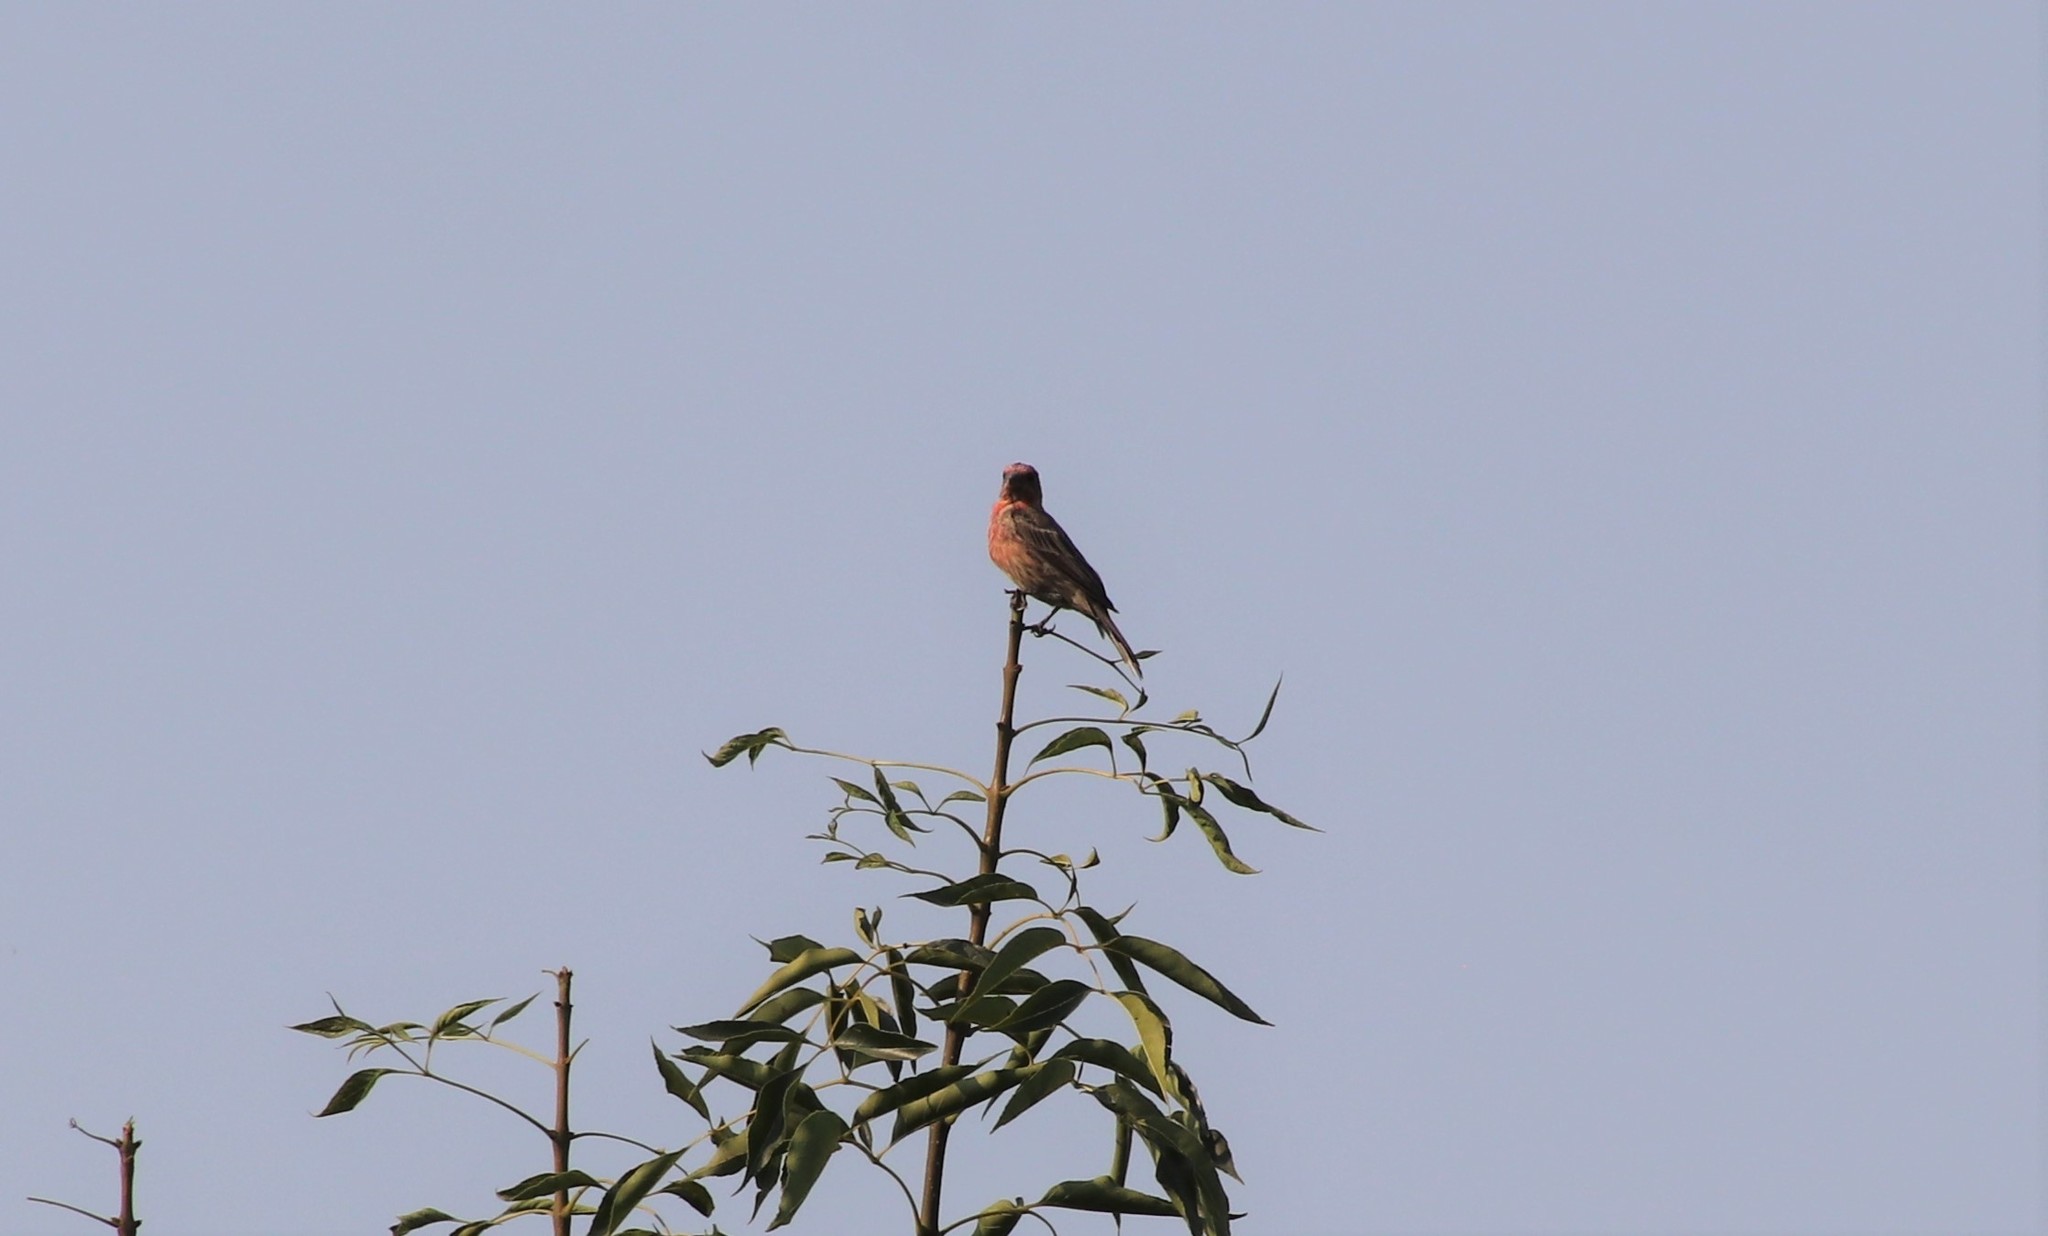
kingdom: Animalia
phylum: Chordata
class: Aves
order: Passeriformes
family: Fringillidae
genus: Haemorhous
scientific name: Haemorhous mexicanus
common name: House finch
